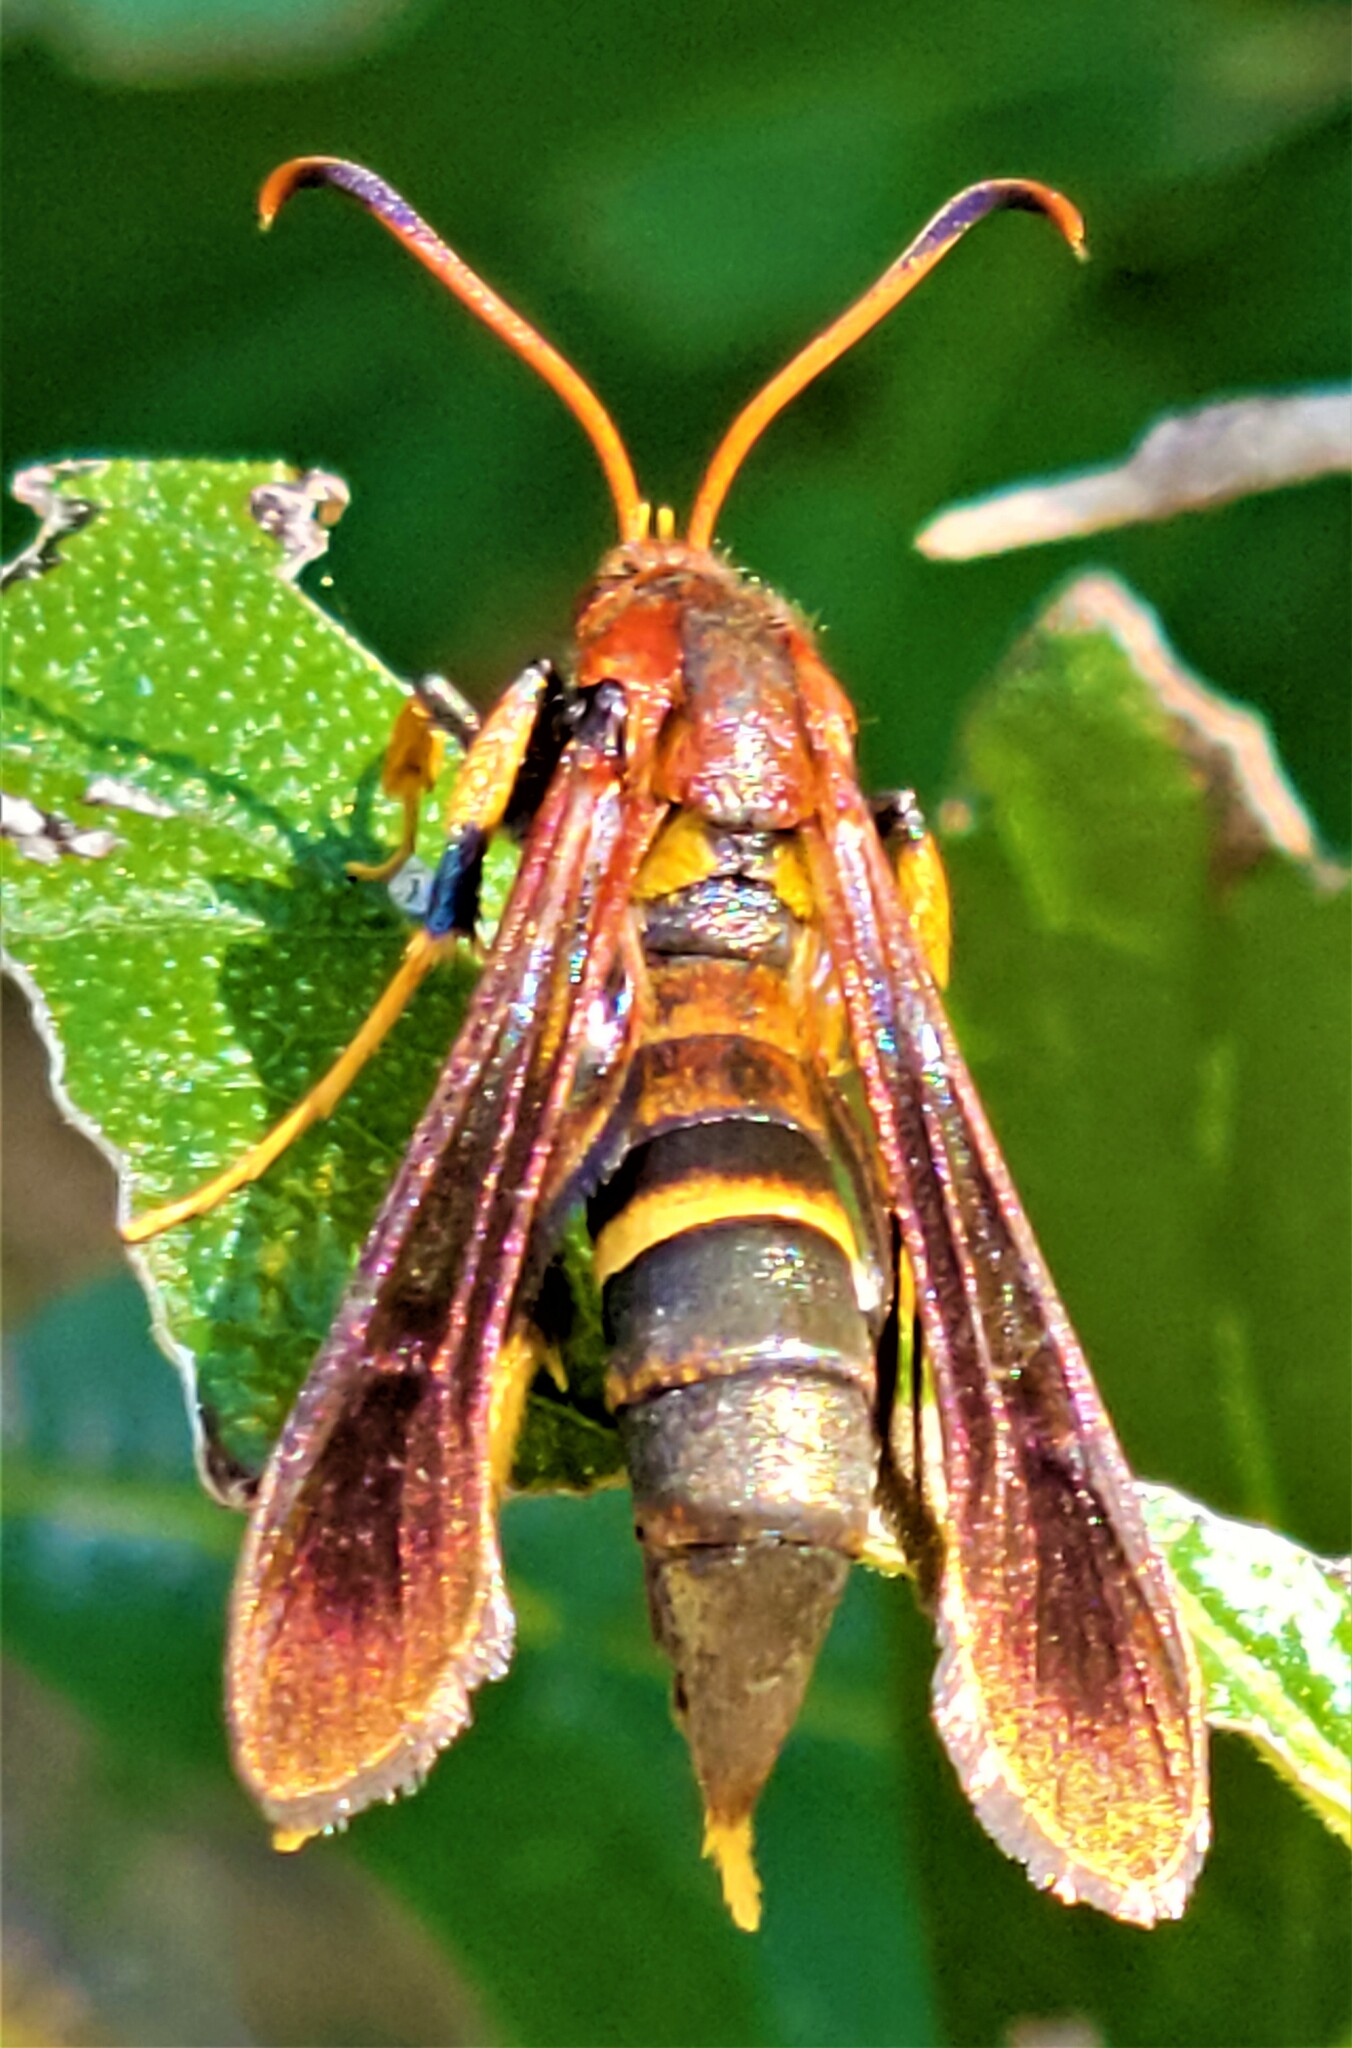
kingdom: Animalia
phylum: Arthropoda
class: Insecta
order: Lepidoptera
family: Sesiidae
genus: Podosesia
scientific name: Podosesia aureocincta
